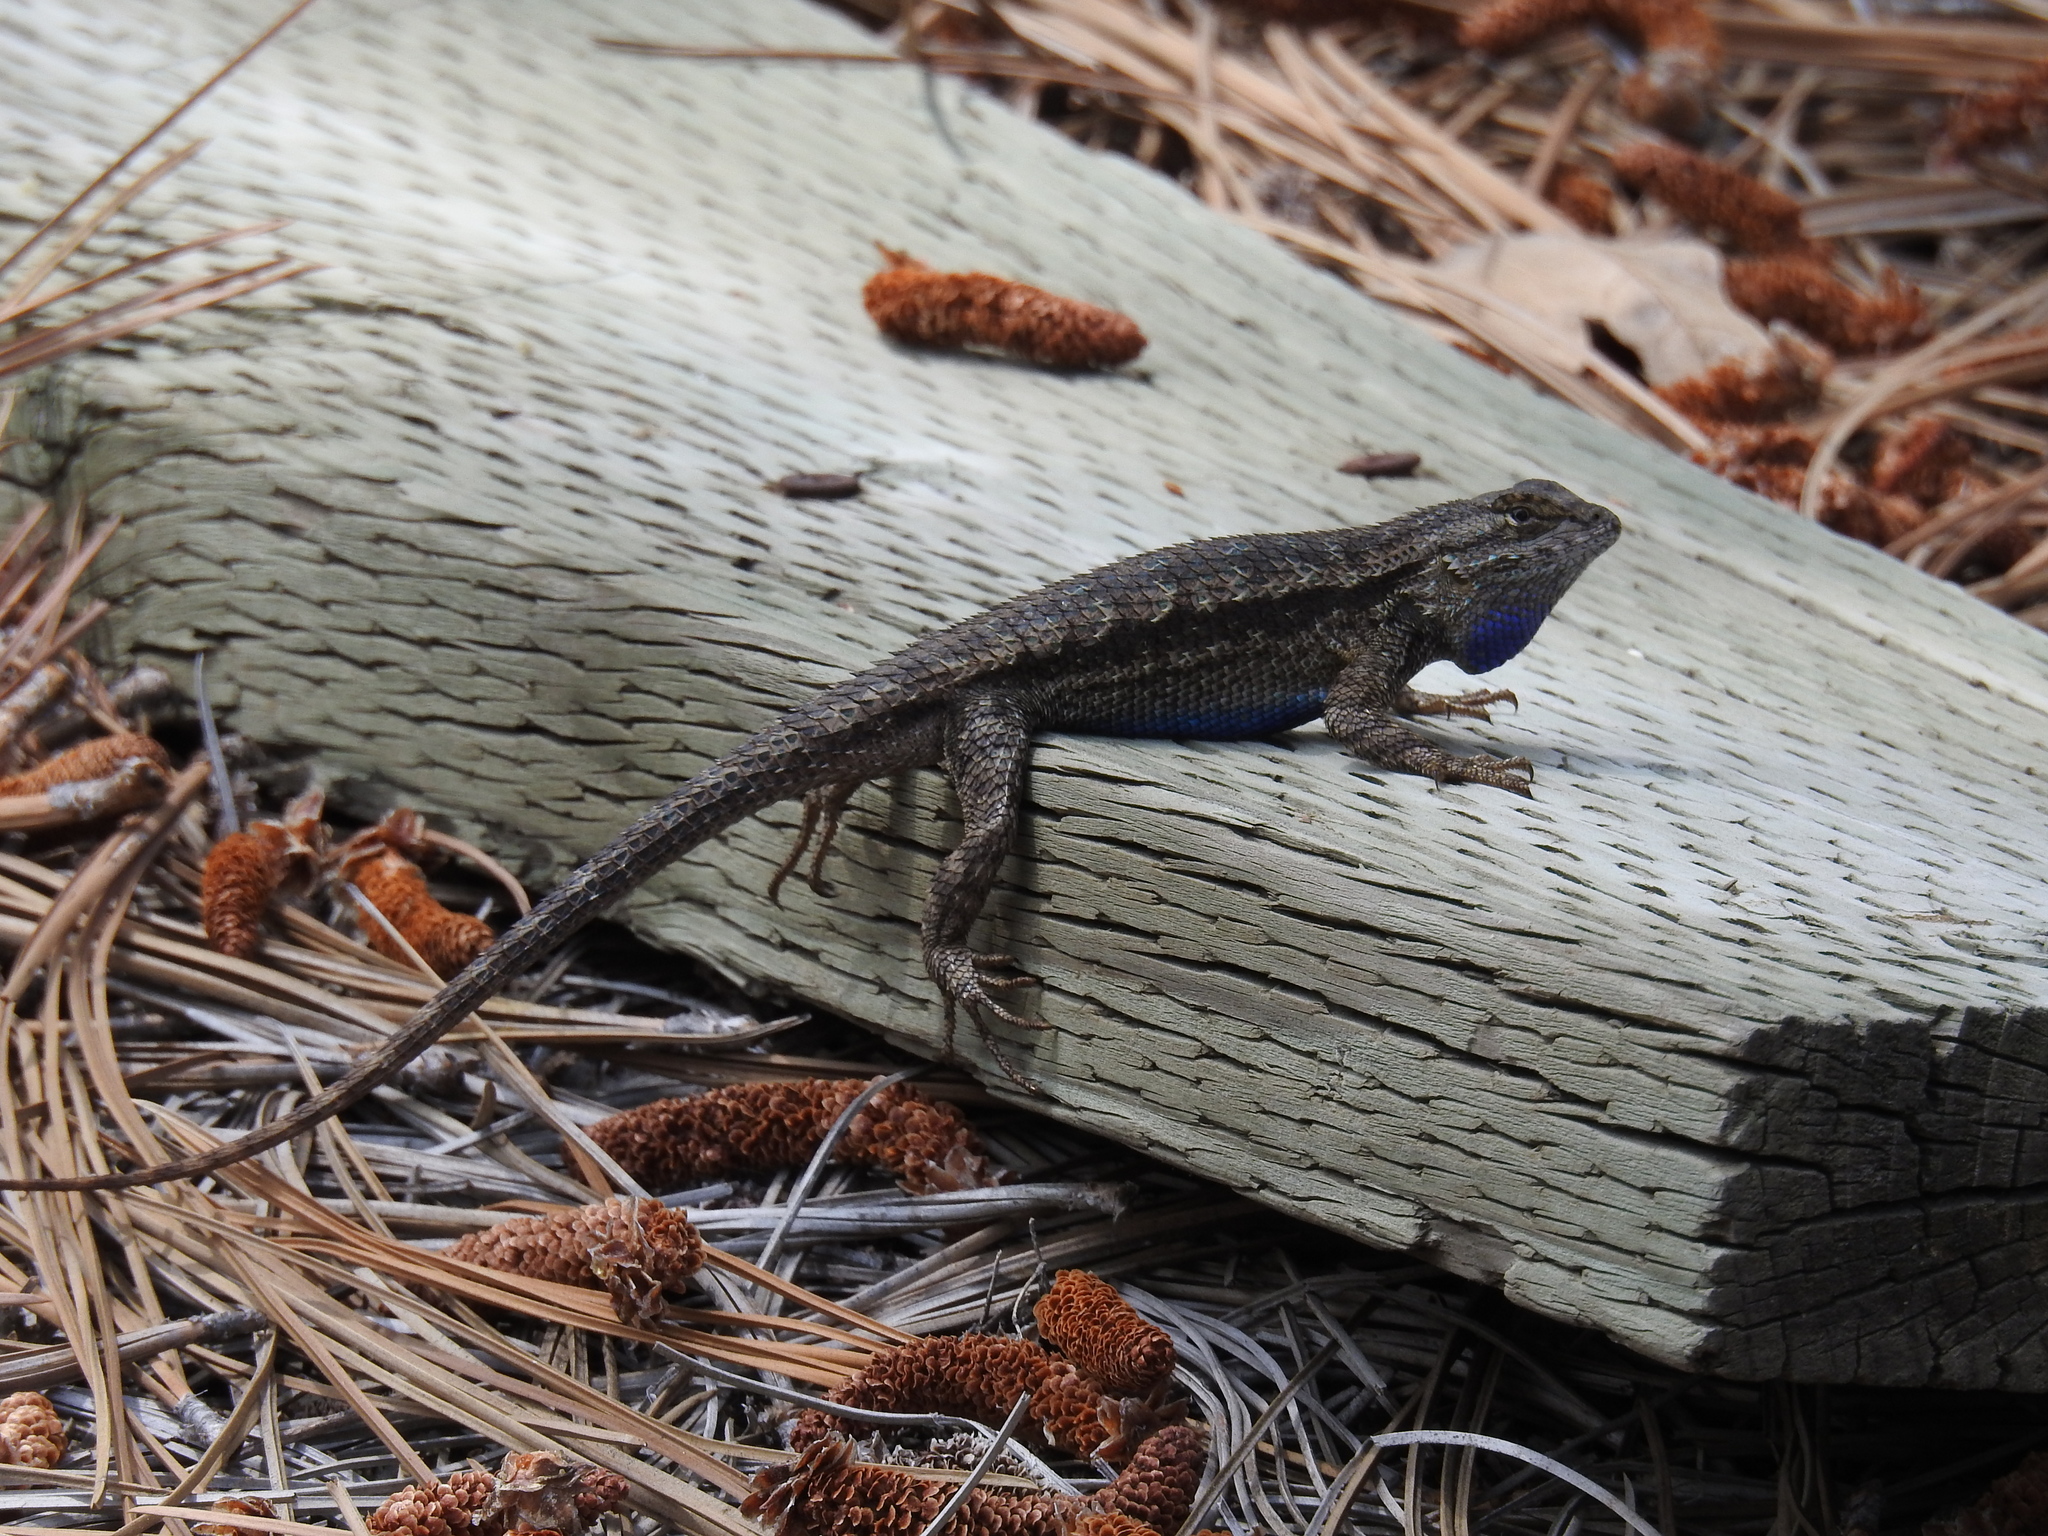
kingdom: Animalia
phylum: Chordata
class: Squamata
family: Phrynosomatidae
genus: Sceloporus
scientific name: Sceloporus occidentalis
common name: Western fence lizard
